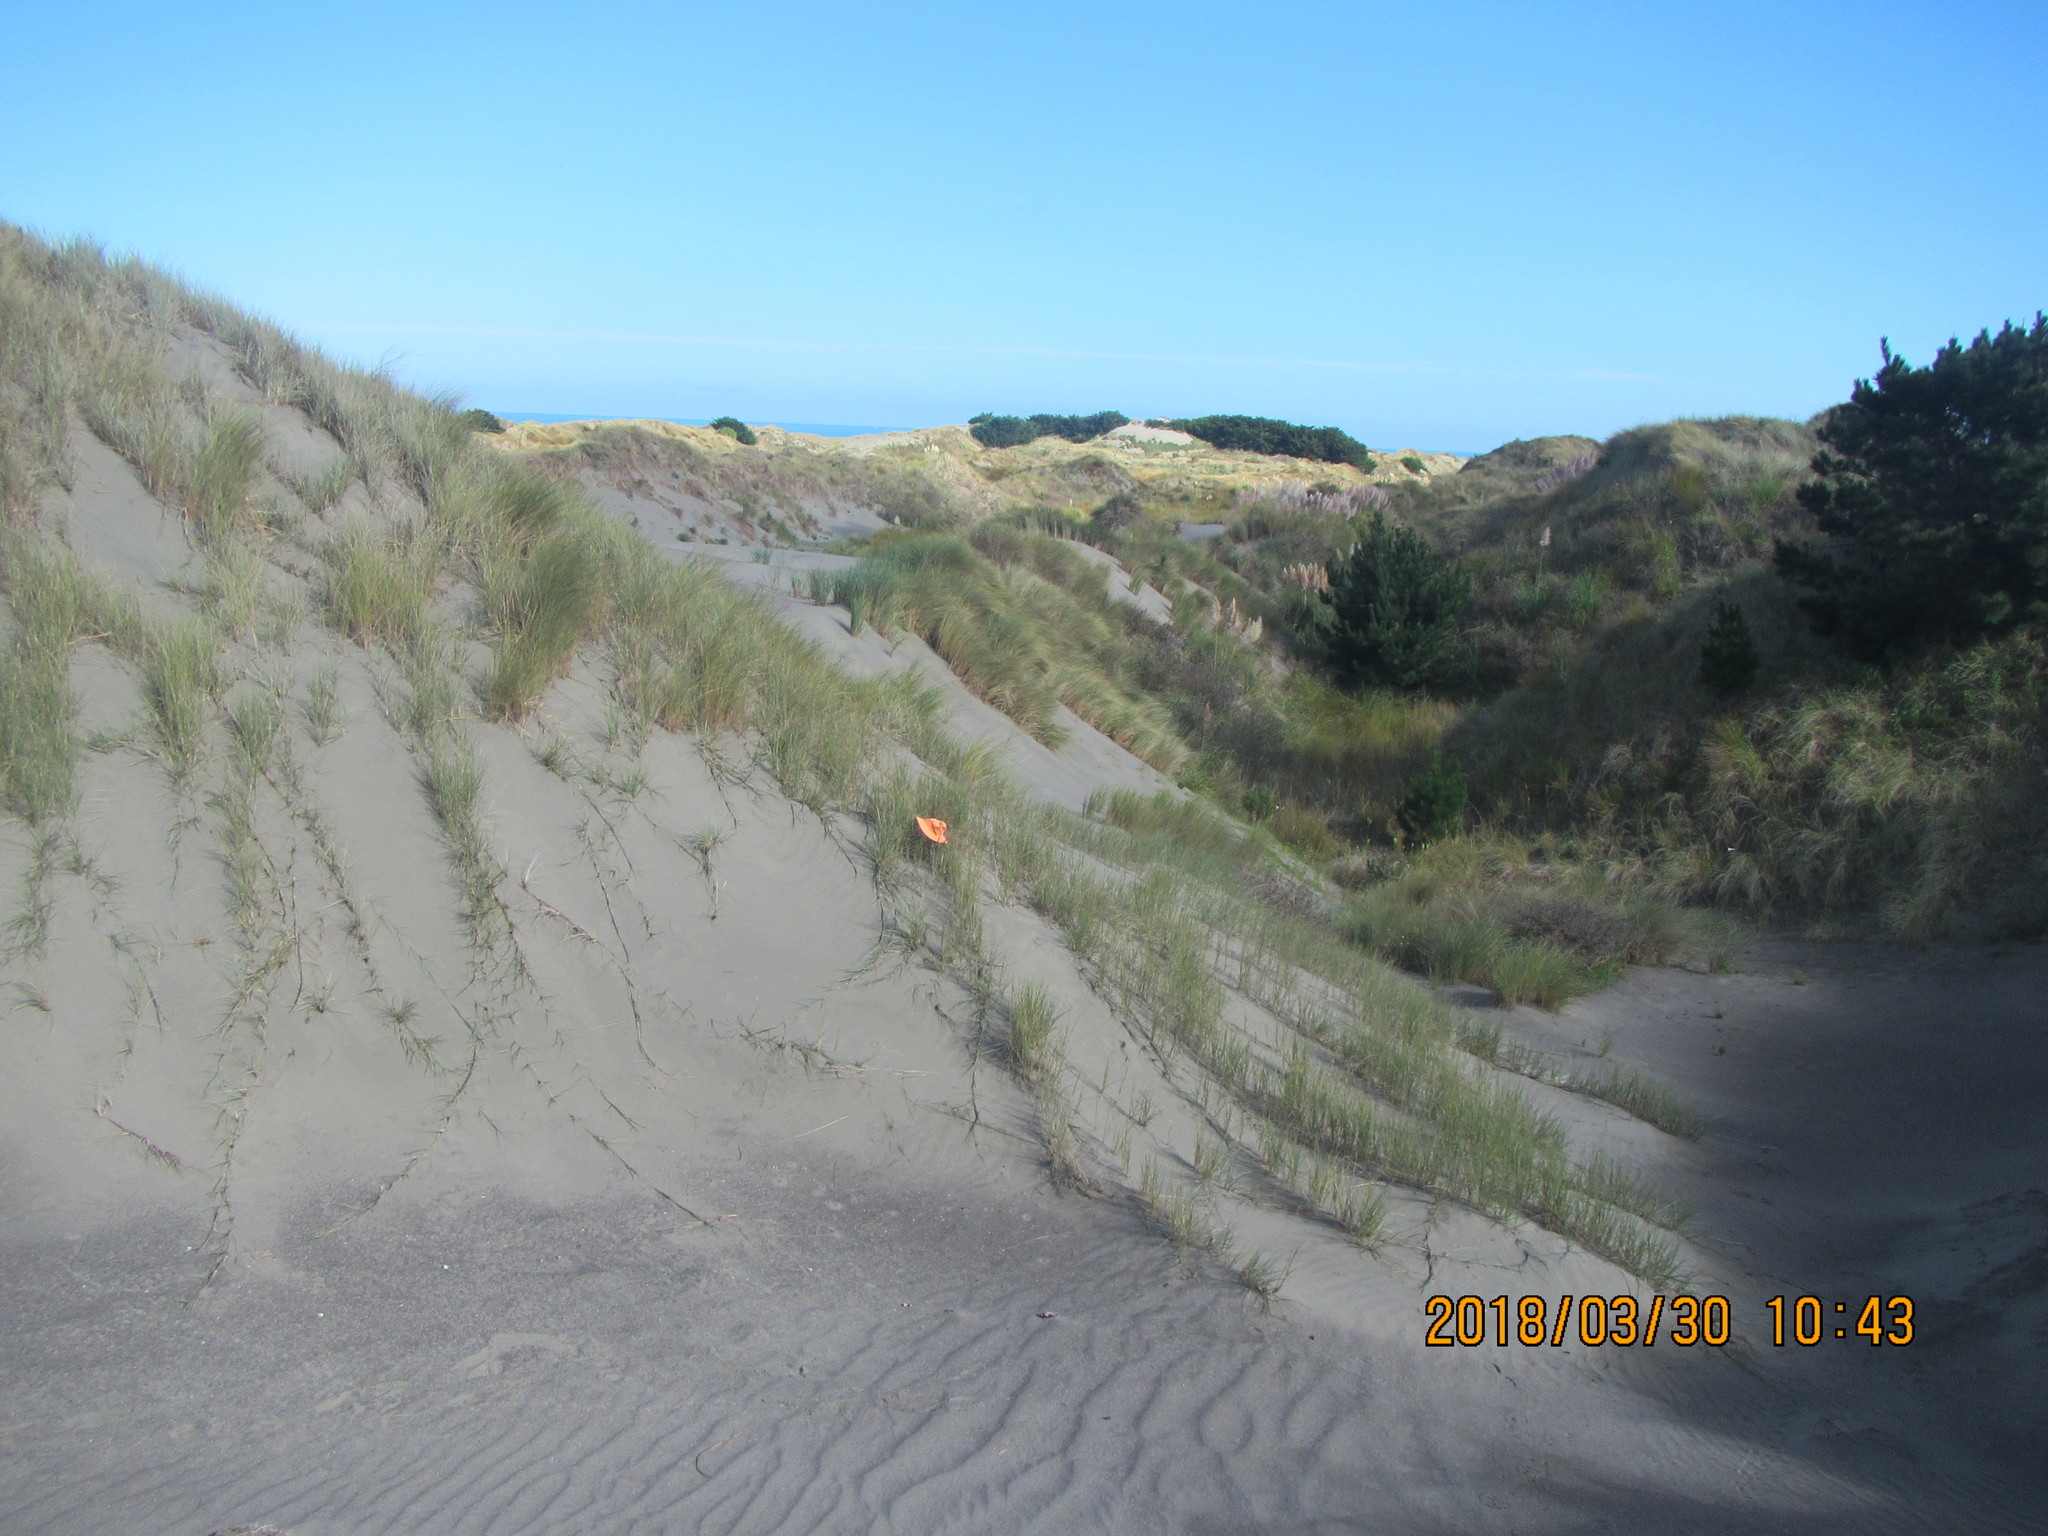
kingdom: Animalia
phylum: Arthropoda
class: Arachnida
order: Araneae
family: Theridiidae
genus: Steatoda
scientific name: Steatoda lepida
